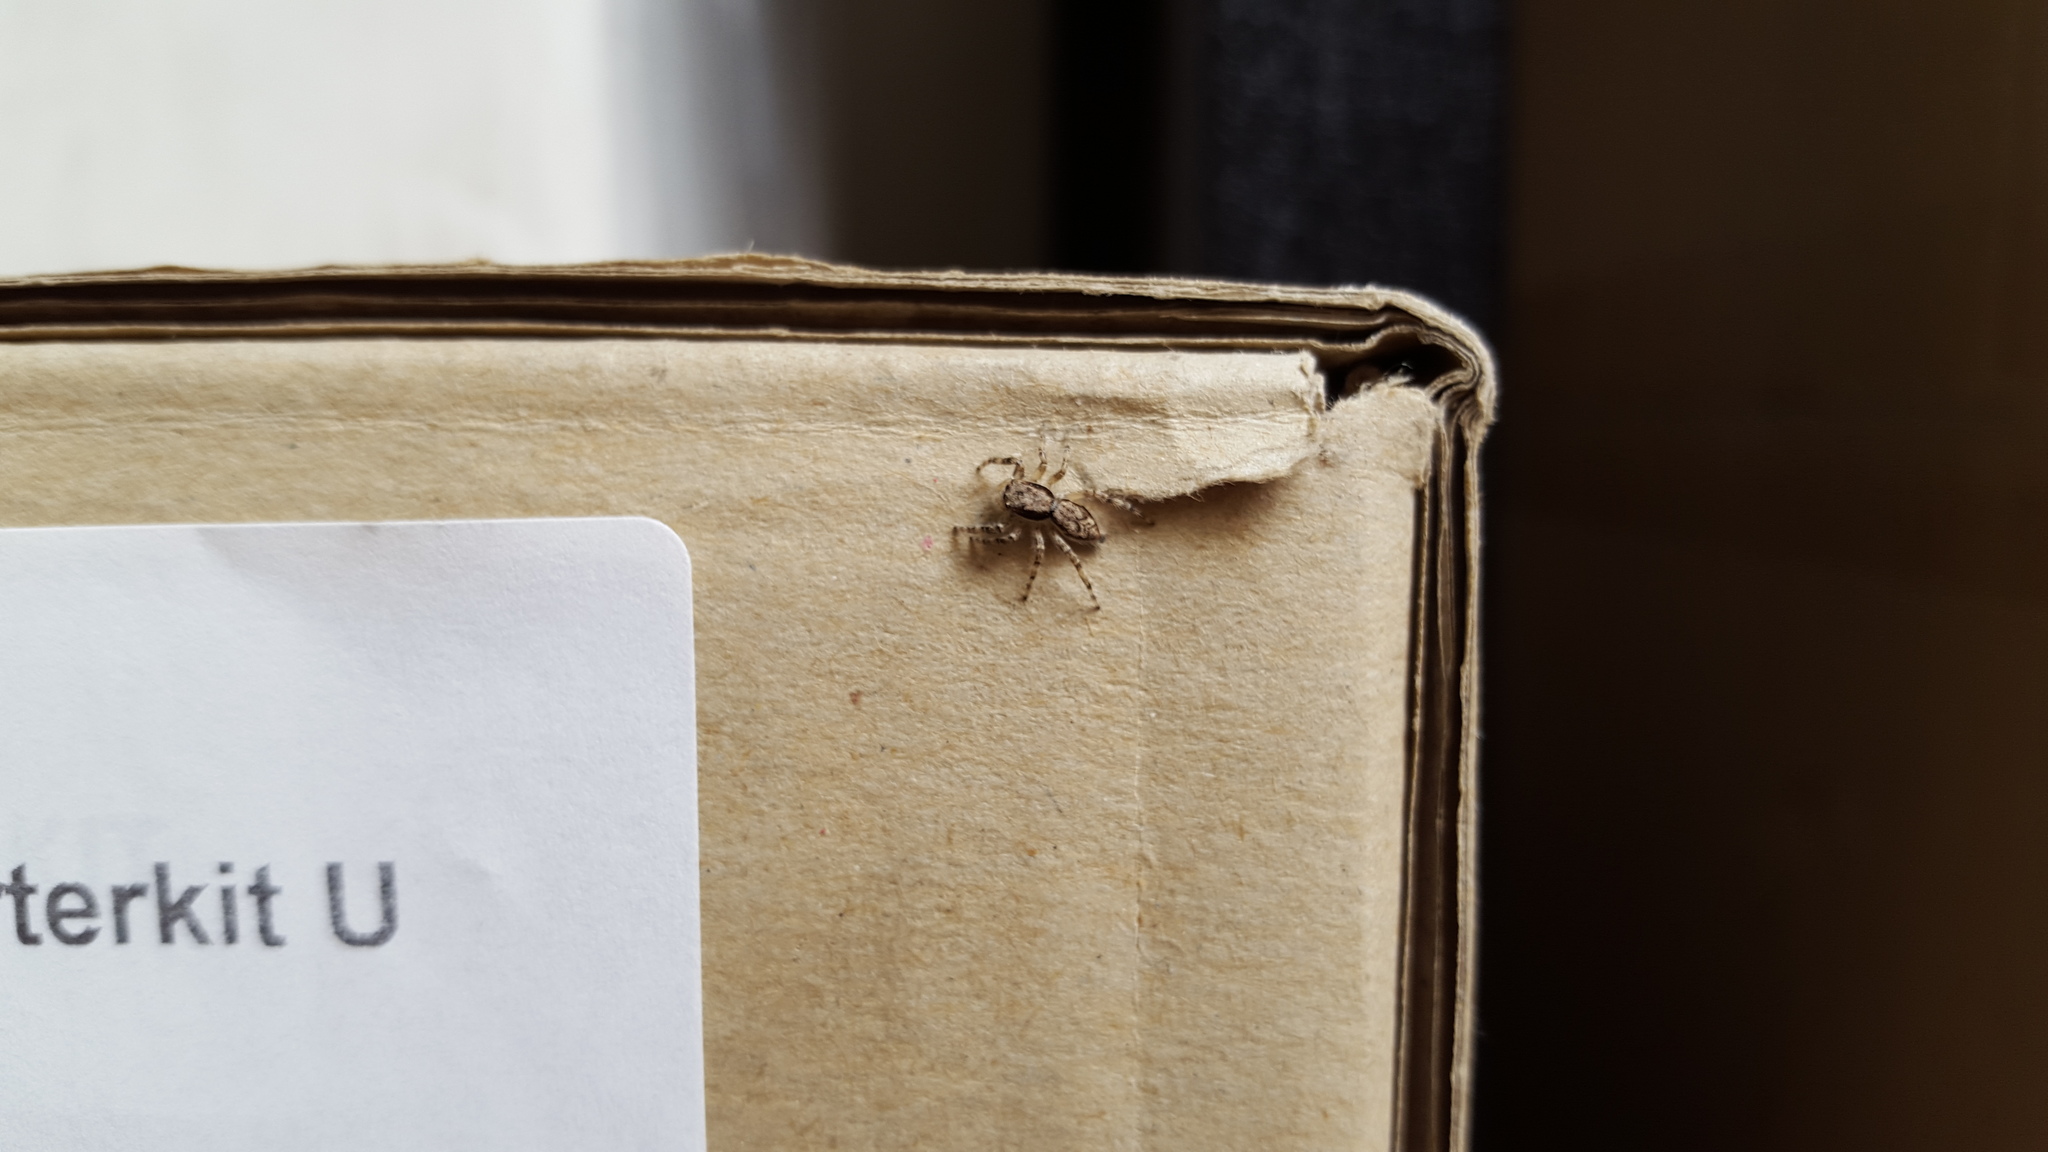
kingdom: Animalia
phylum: Arthropoda
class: Arachnida
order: Araneae
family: Salticidae
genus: Menemerus
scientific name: Menemerus bivittatus
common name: Gray wall jumper
